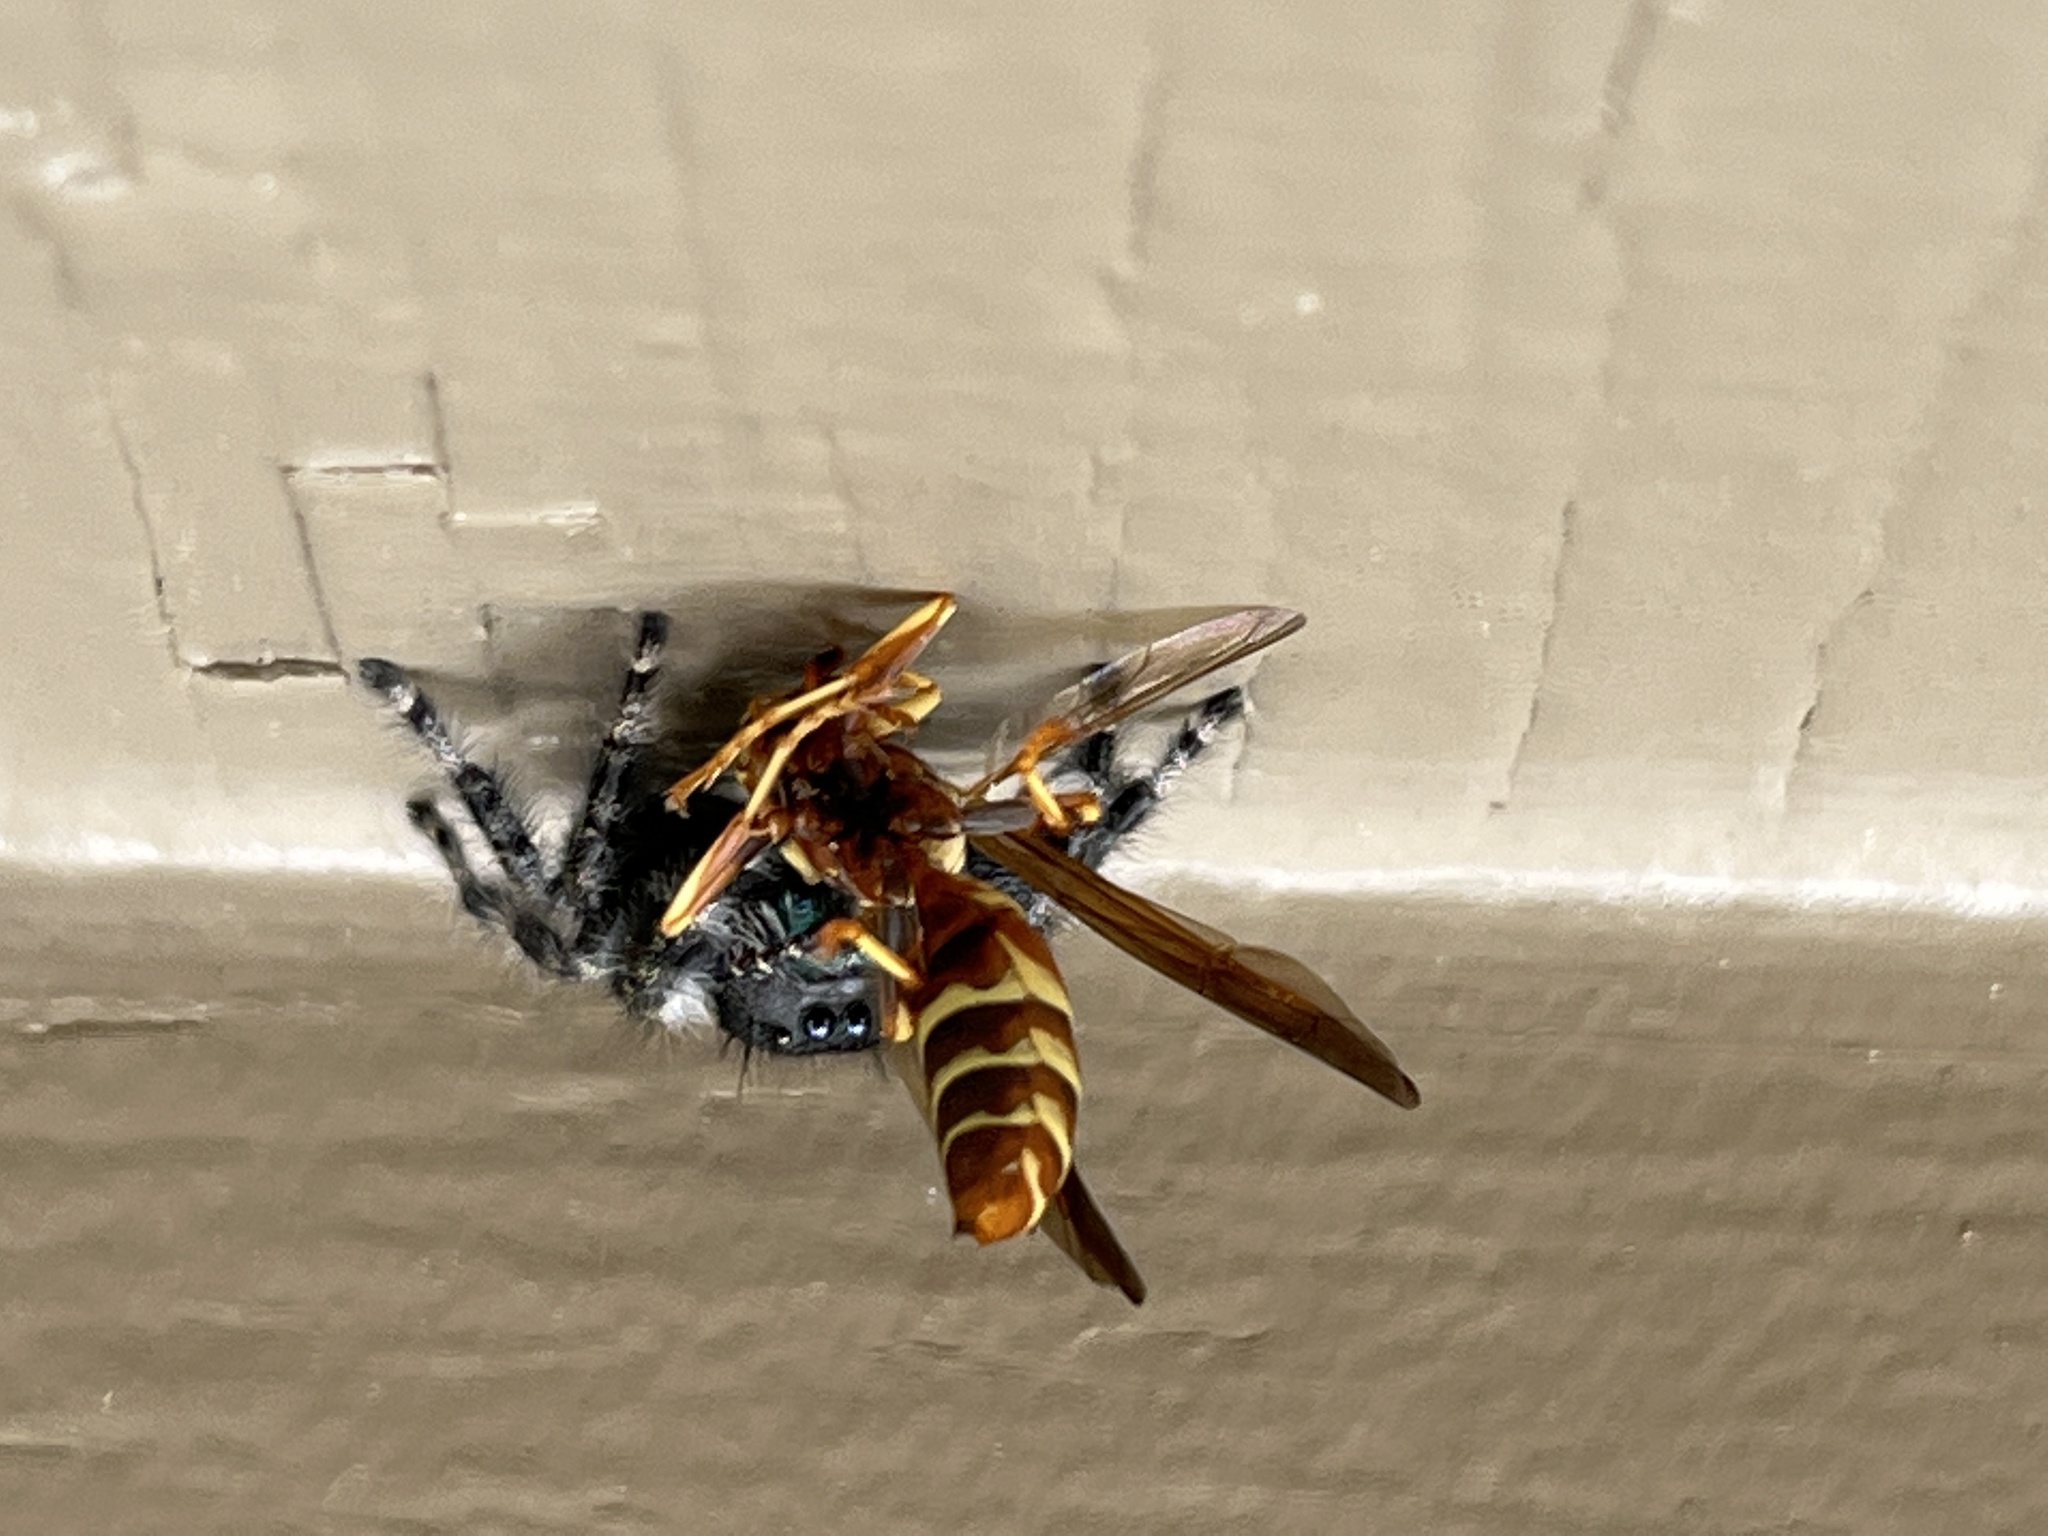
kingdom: Animalia
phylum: Arthropoda
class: Arachnida
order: Araneae
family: Salticidae
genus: Phidippus
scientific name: Phidippus audax
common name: Bold jumper
